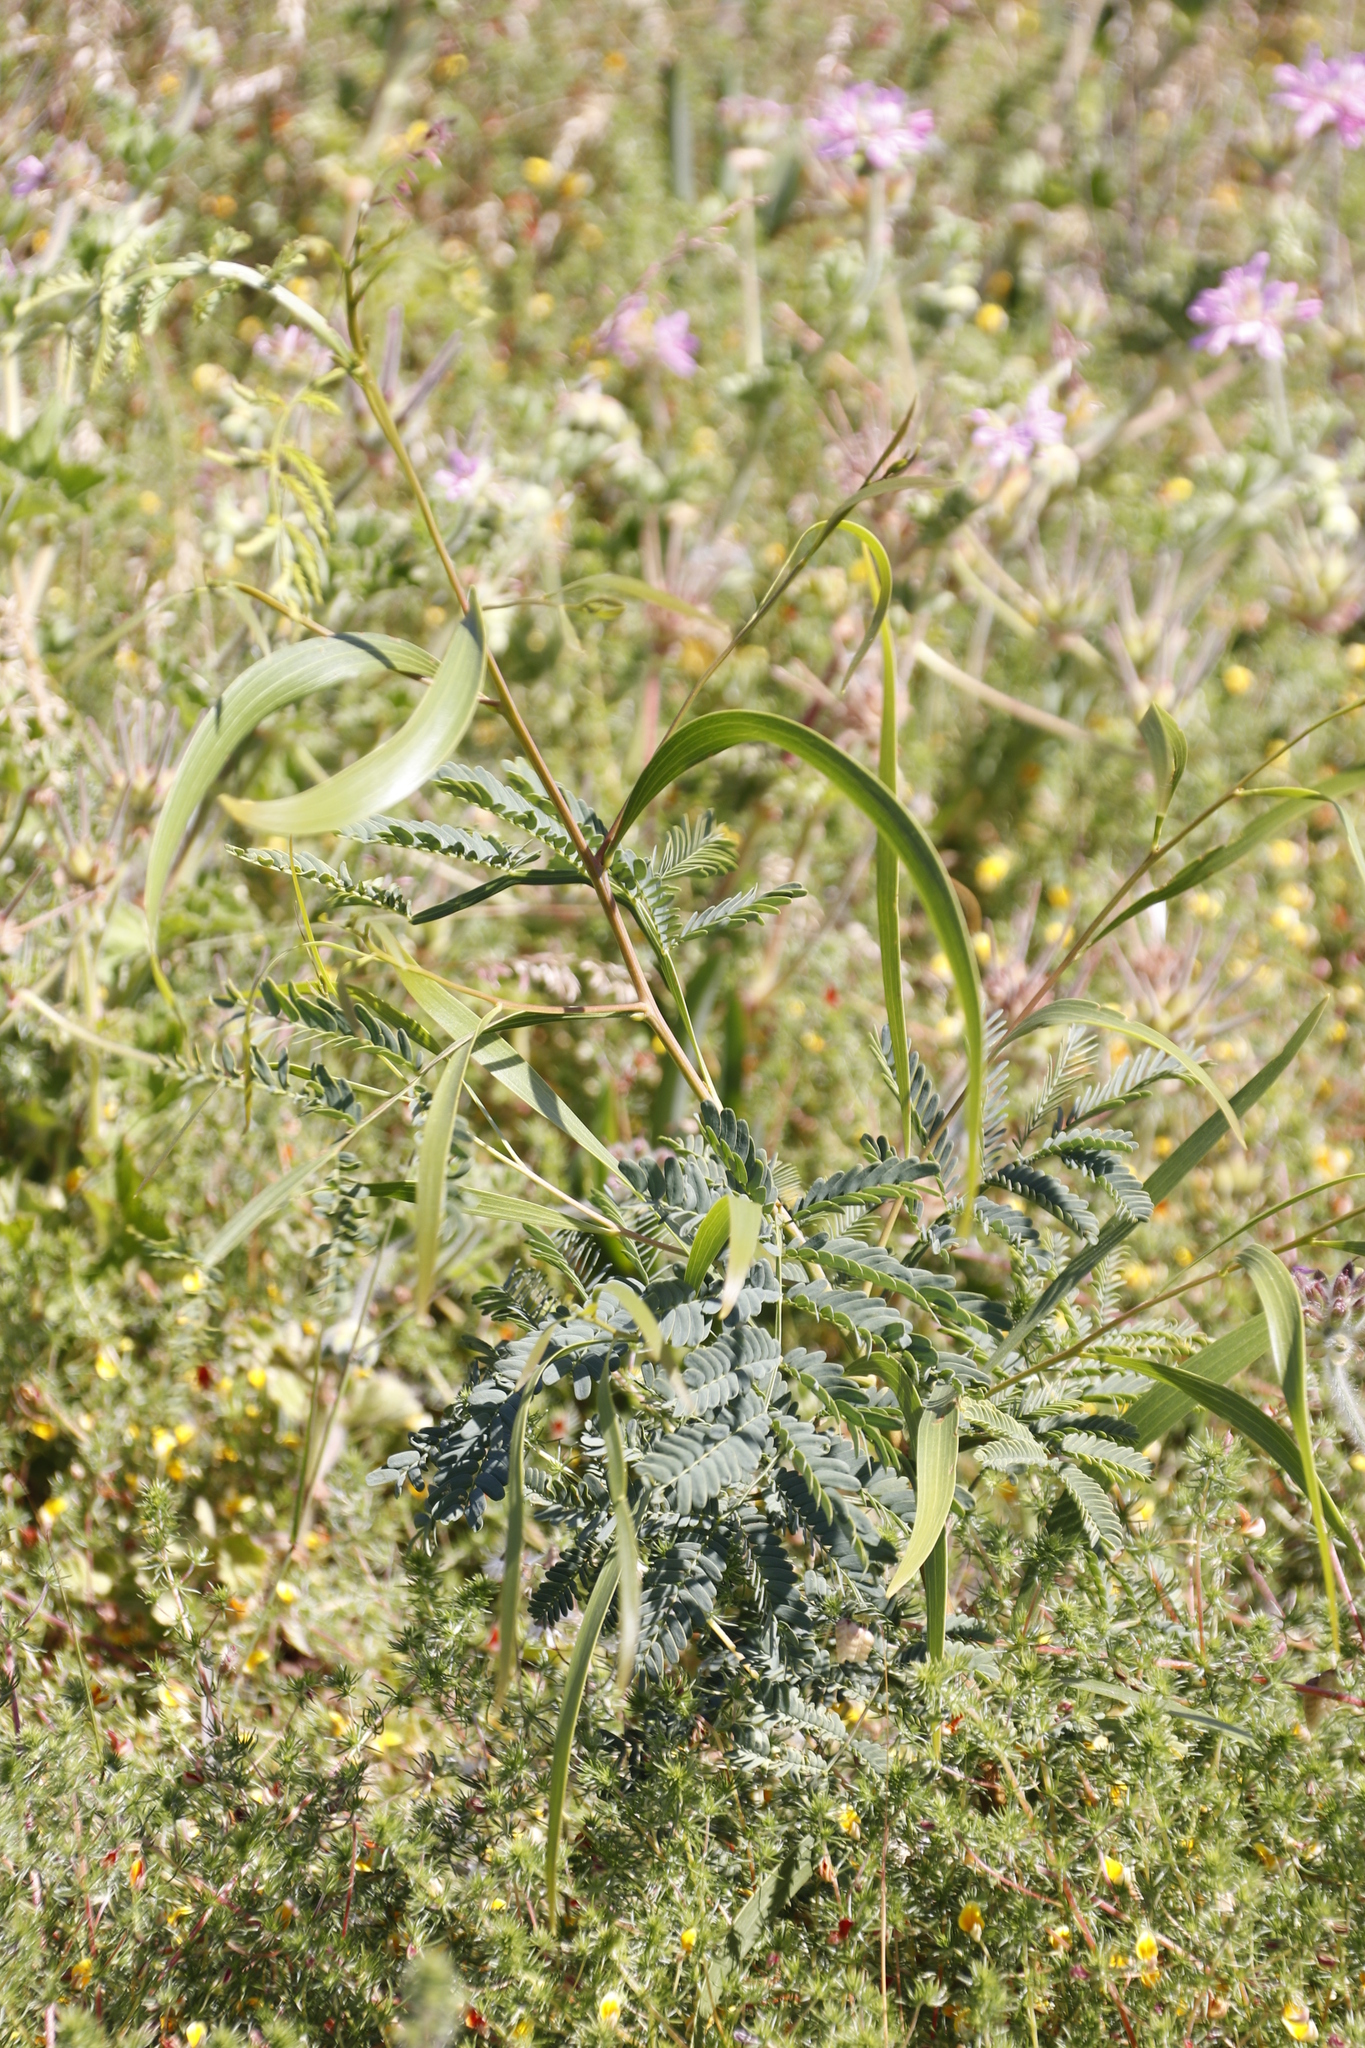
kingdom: Plantae
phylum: Tracheophyta
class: Magnoliopsida
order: Fabales
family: Fabaceae
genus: Acacia
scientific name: Acacia implexa
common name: Black wattle
